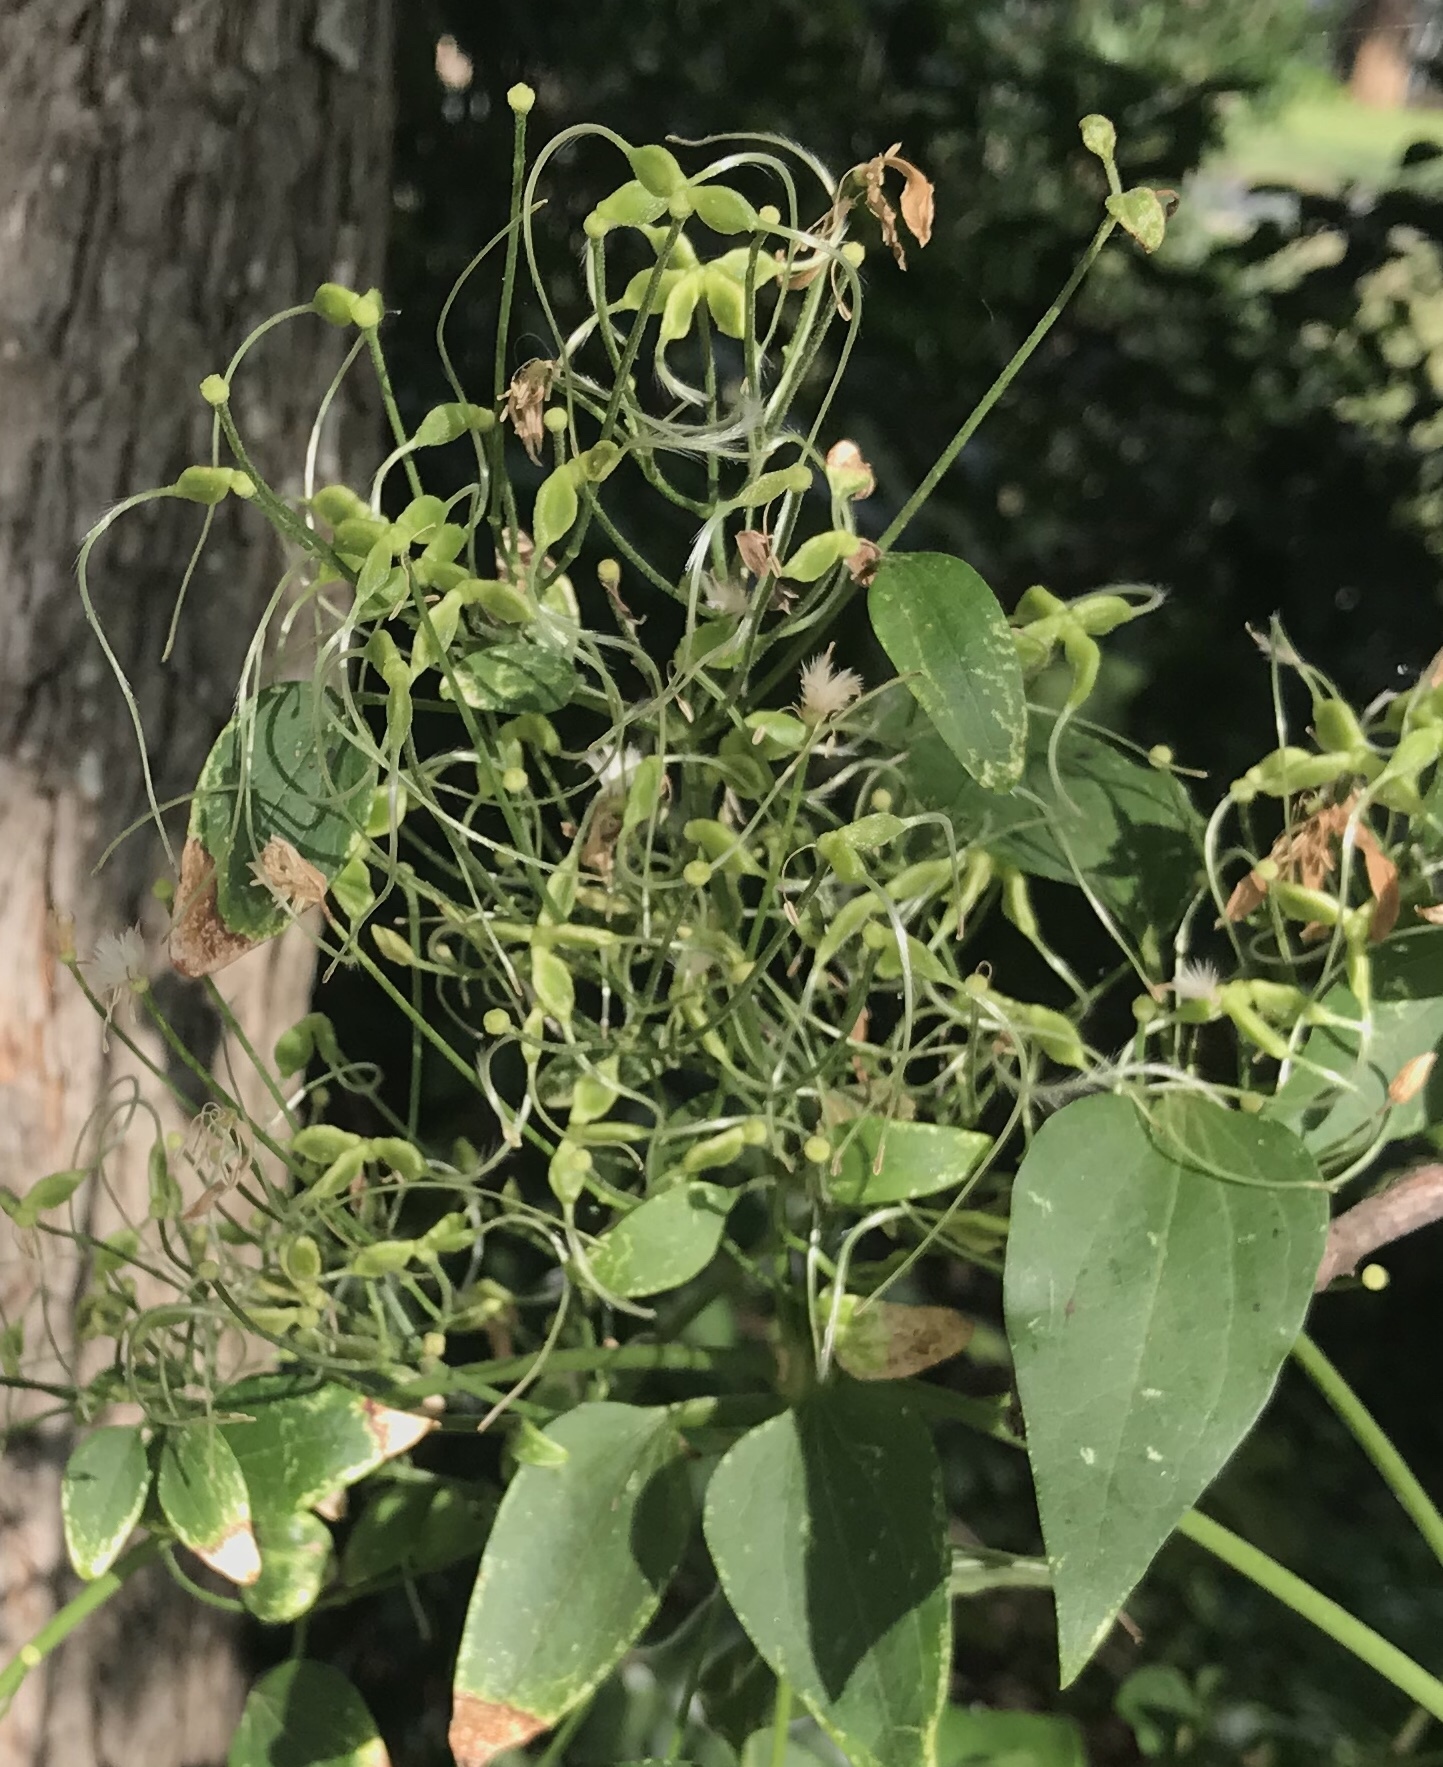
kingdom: Plantae
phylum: Tracheophyta
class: Magnoliopsida
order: Ranunculales
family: Ranunculaceae
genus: Clematis
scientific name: Clematis terniflora
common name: Sweet autumn clematis
